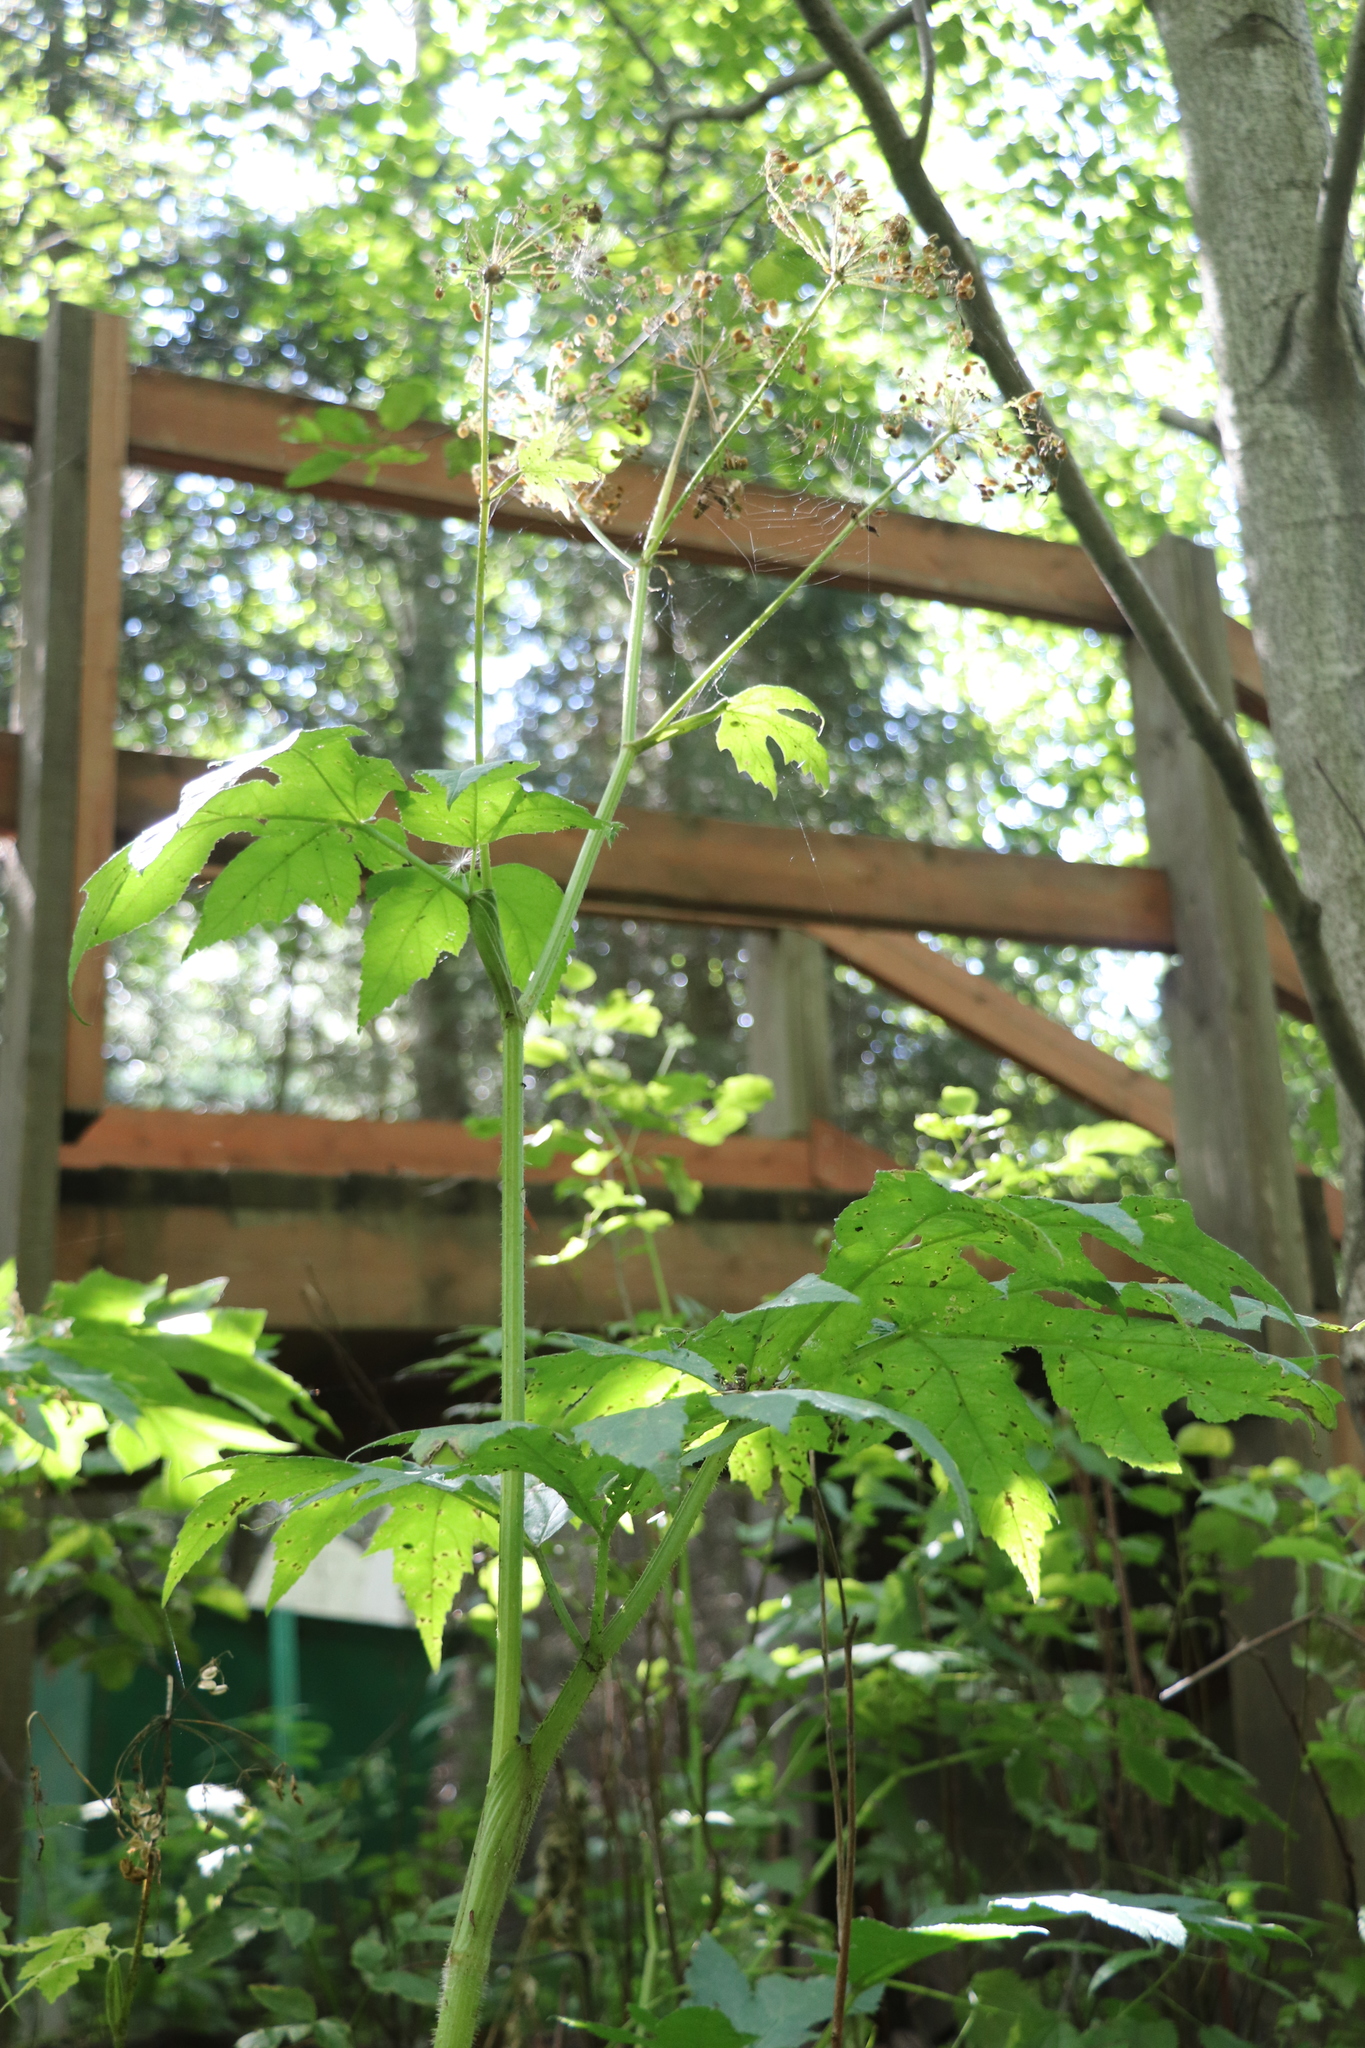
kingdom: Plantae
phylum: Tracheophyta
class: Magnoliopsida
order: Apiales
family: Apiaceae
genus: Heracleum
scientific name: Heracleum dissectum
